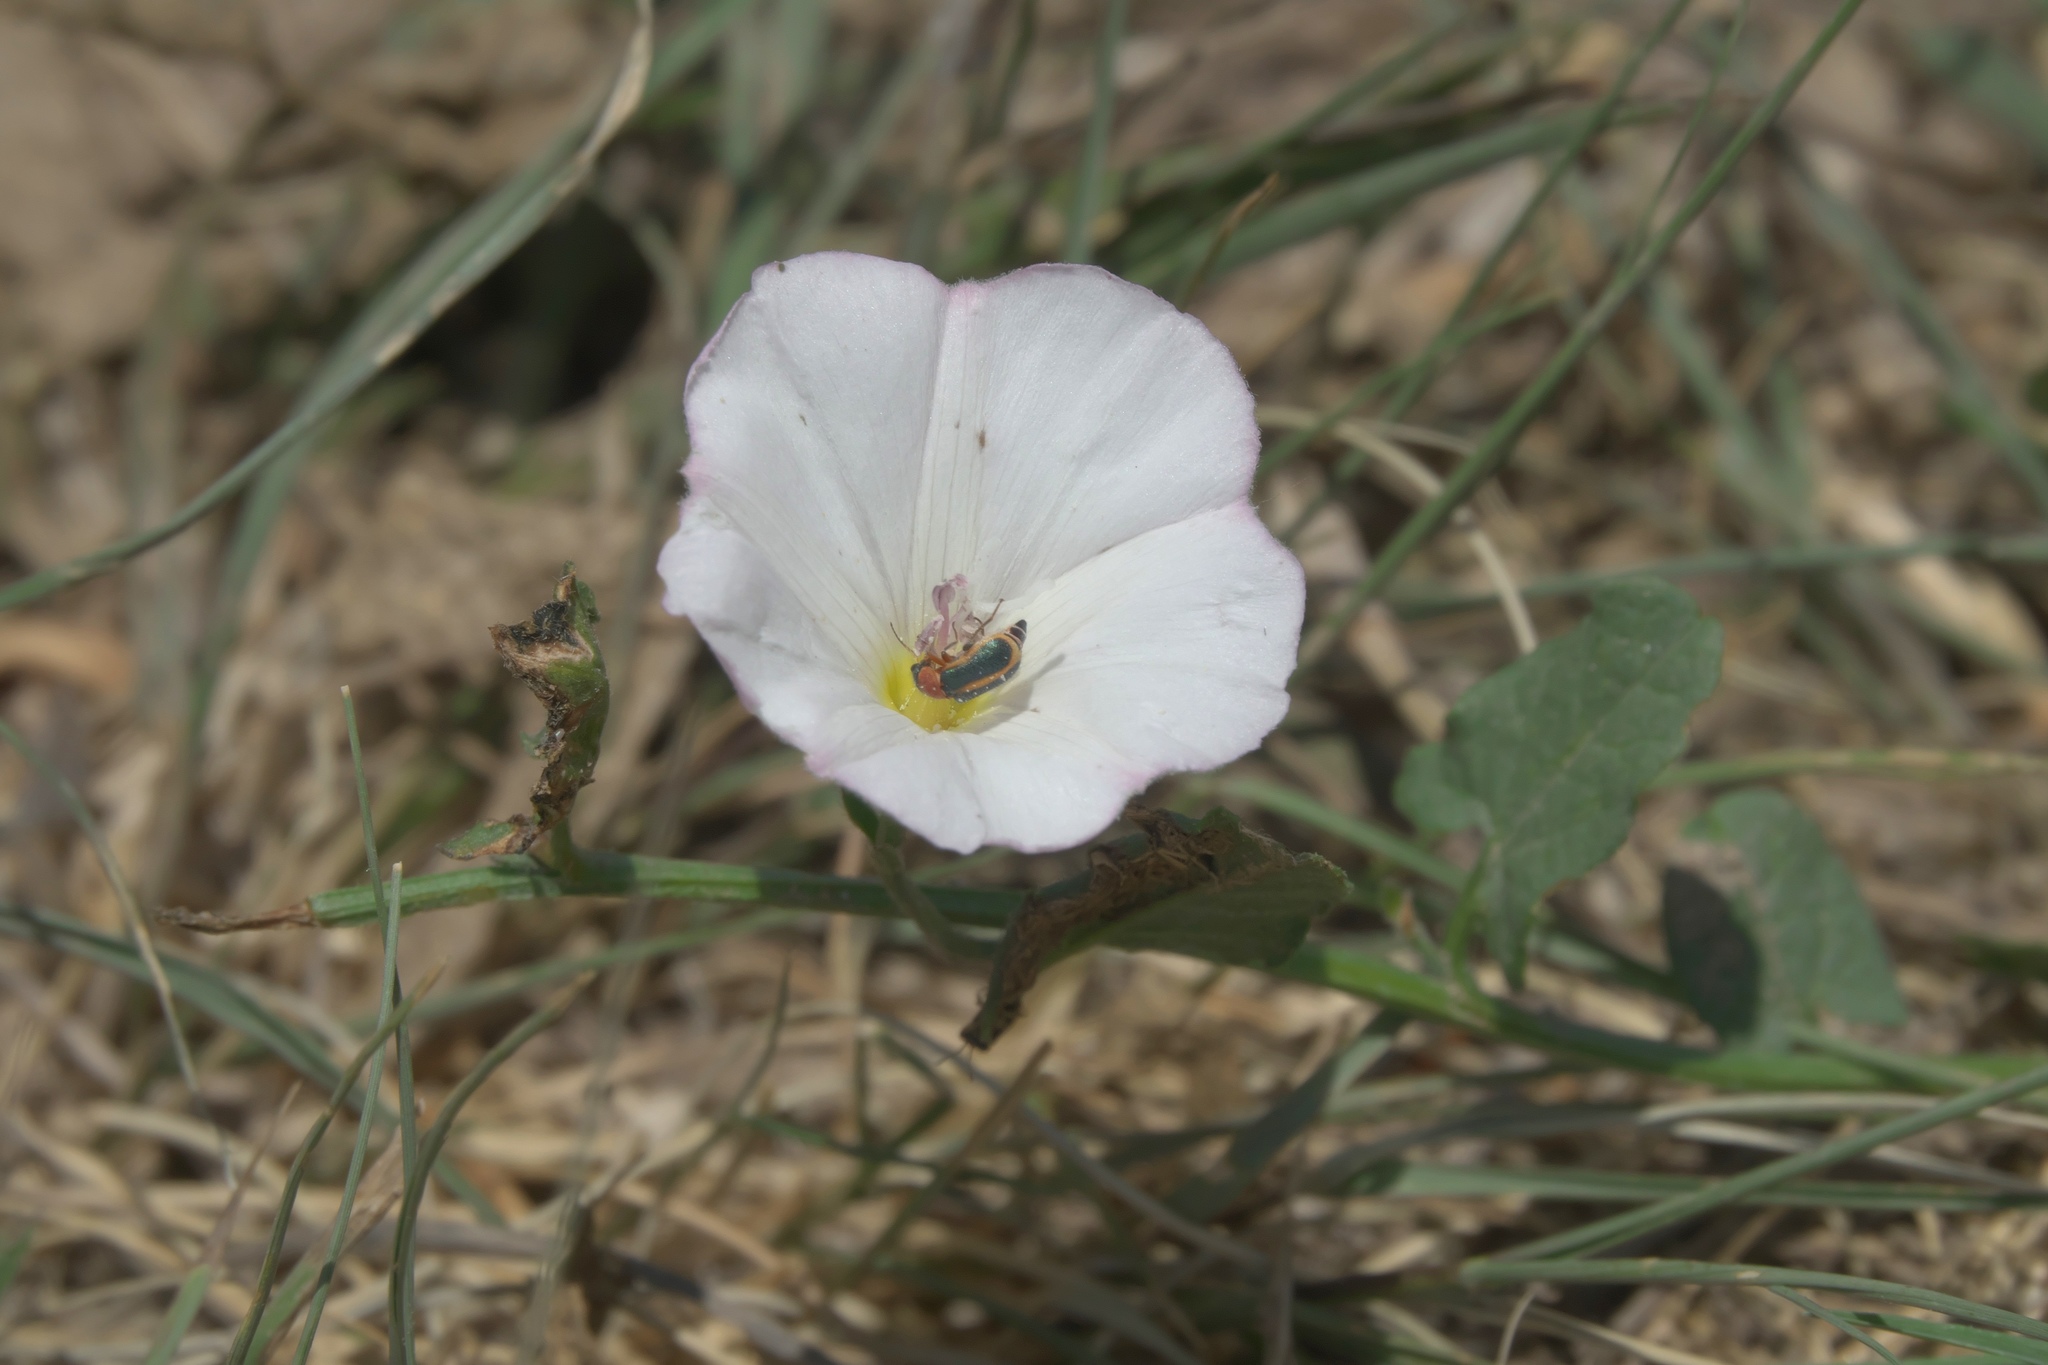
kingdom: Plantae
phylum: Tracheophyta
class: Magnoliopsida
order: Solanales
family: Convolvulaceae
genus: Convolvulus
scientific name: Convolvulus arvensis
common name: Field bindweed
